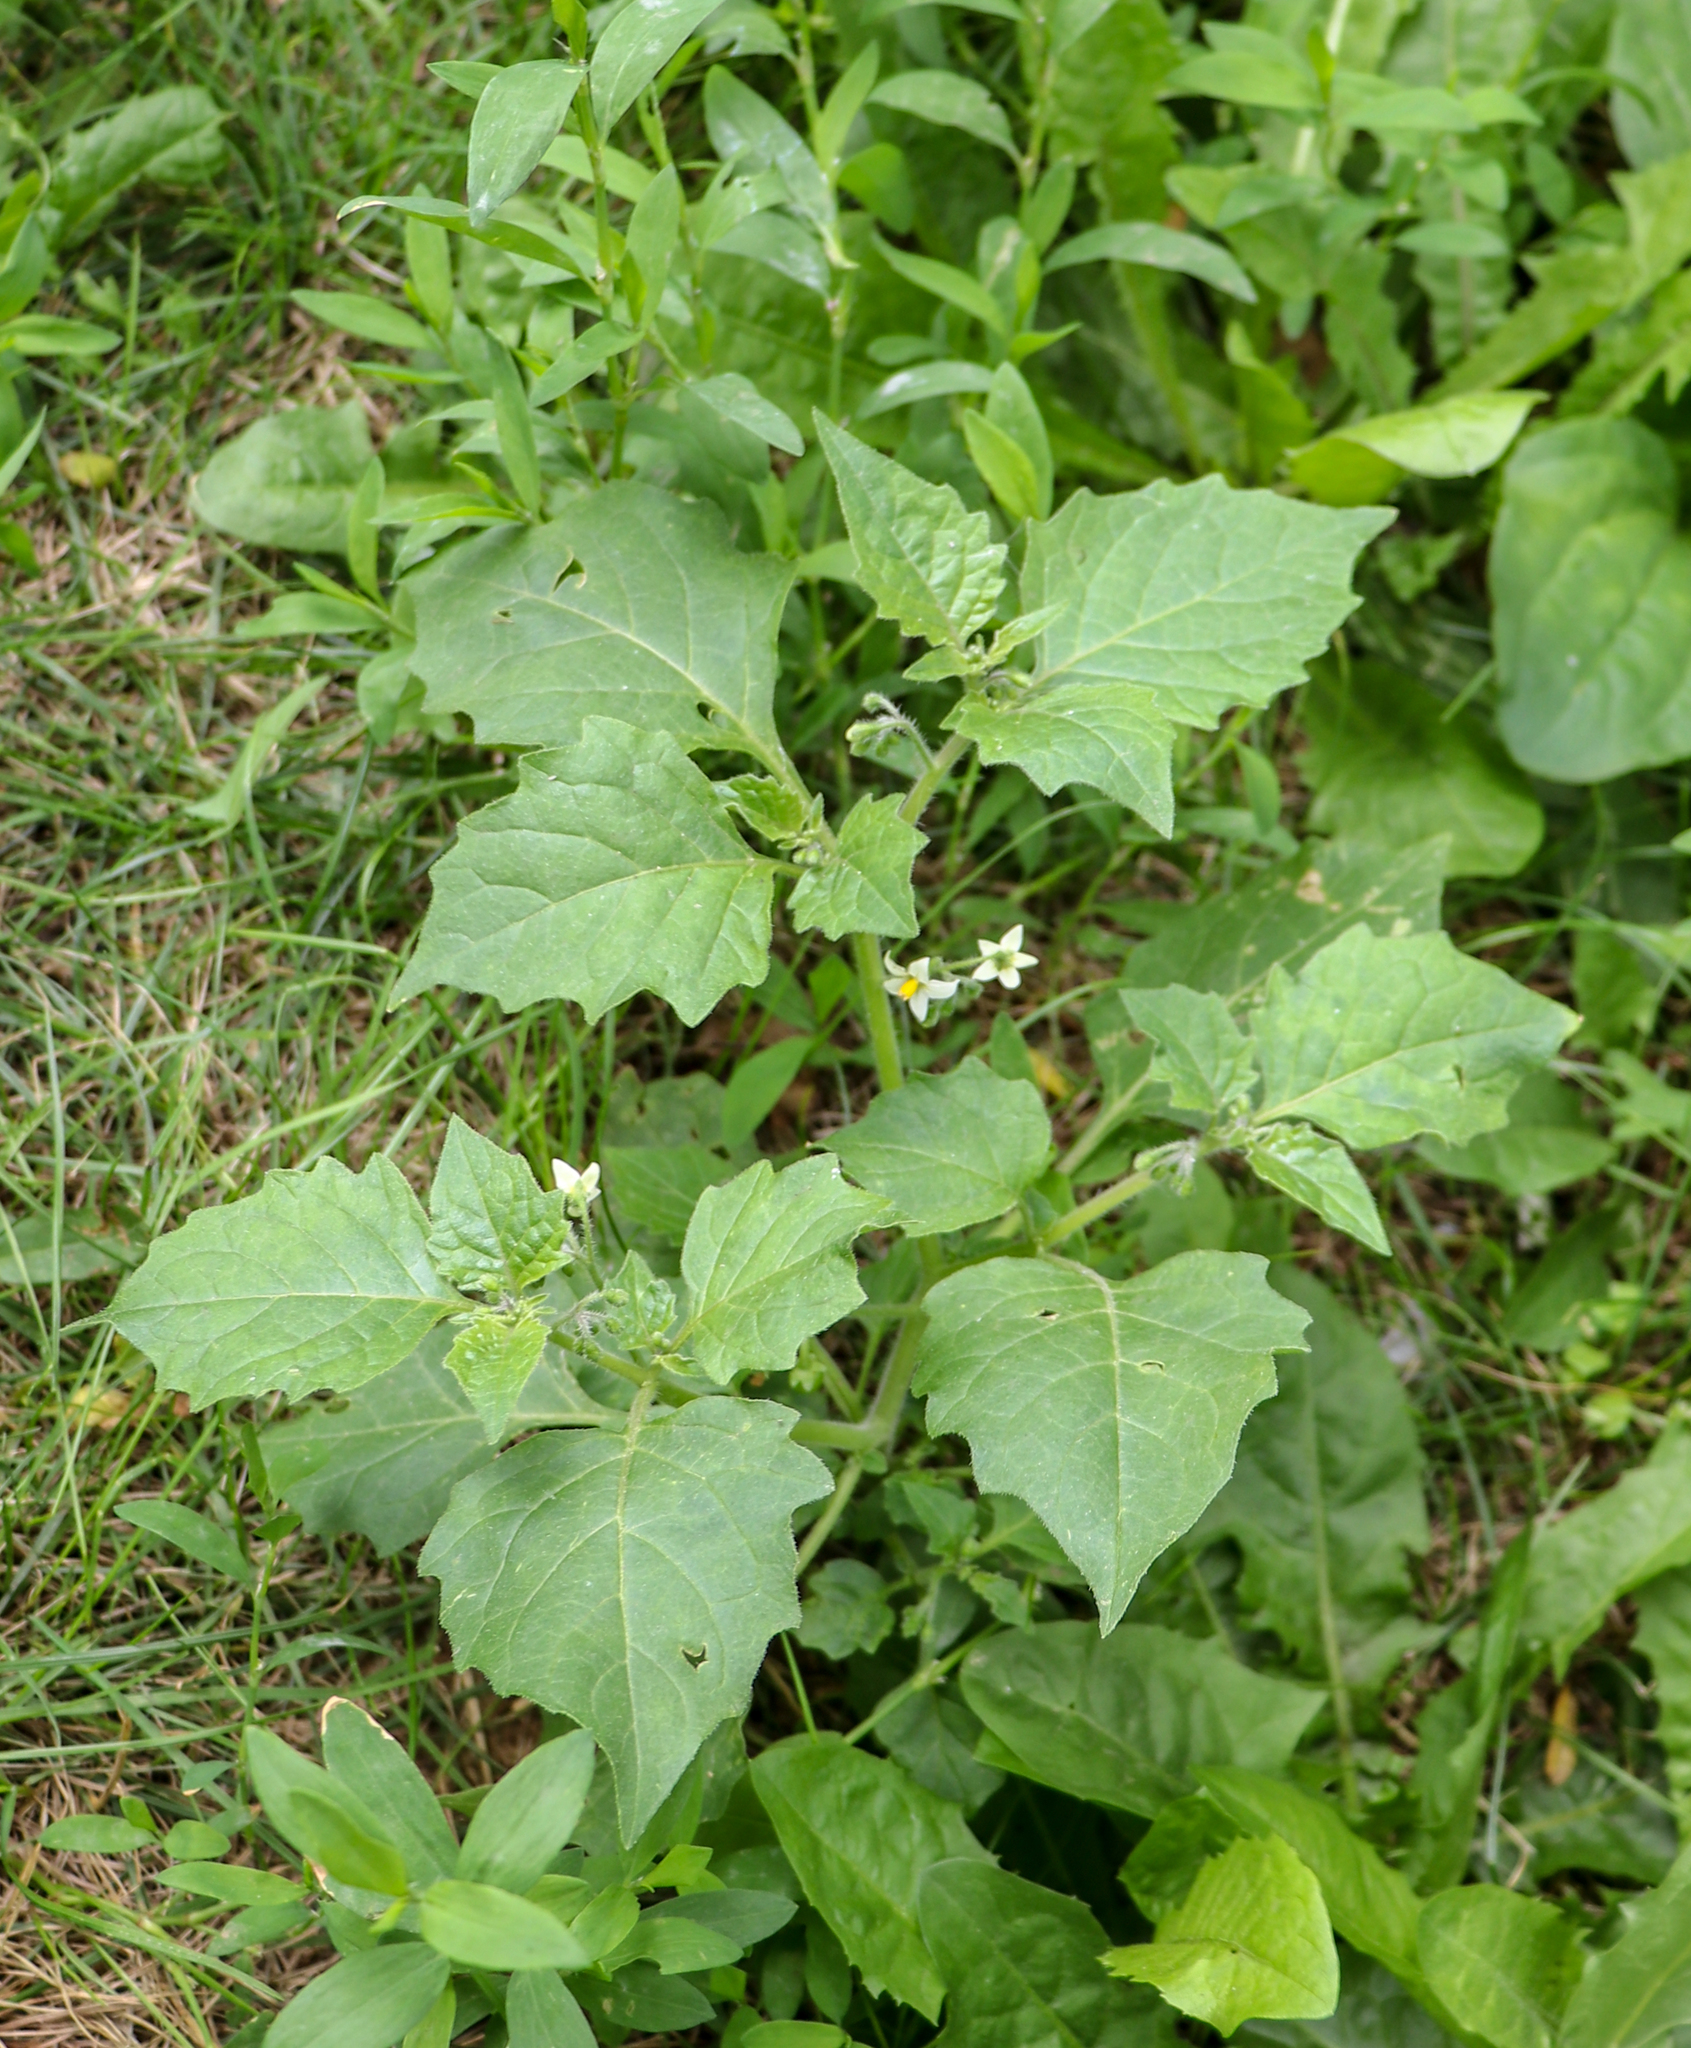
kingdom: Plantae
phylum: Tracheophyta
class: Magnoliopsida
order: Solanales
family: Solanaceae
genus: Solanum
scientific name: Solanum nigrum
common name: Black nightshade
